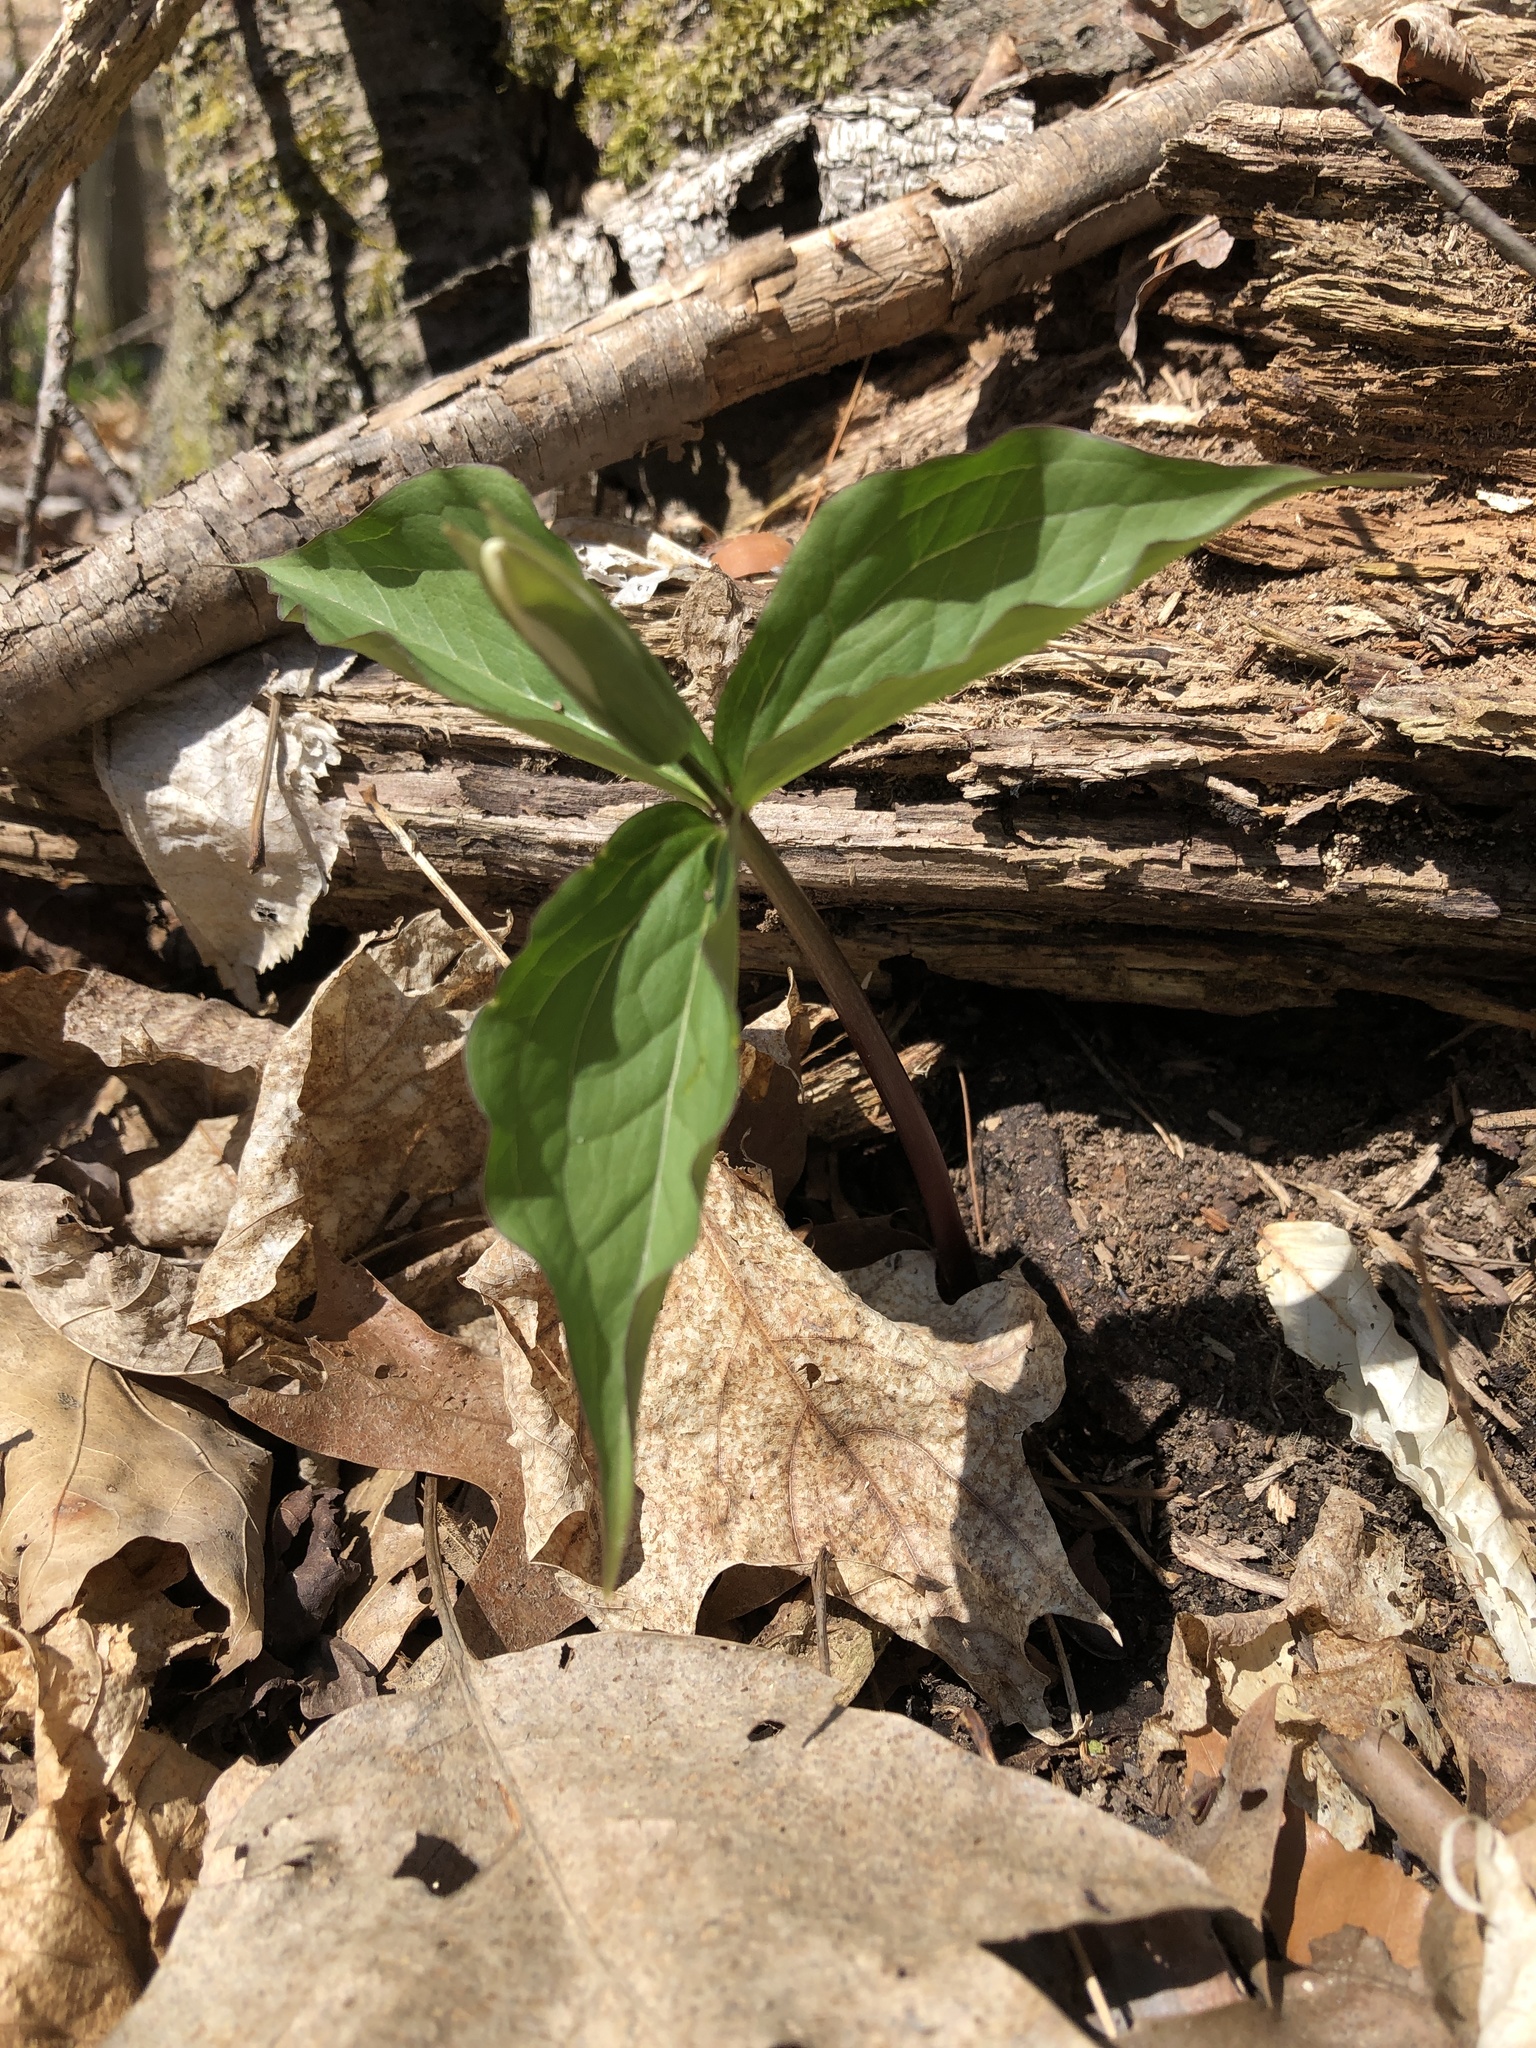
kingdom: Plantae
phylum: Tracheophyta
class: Liliopsida
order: Liliales
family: Melanthiaceae
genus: Trillium
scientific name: Trillium grandiflorum
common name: Great white trillium
